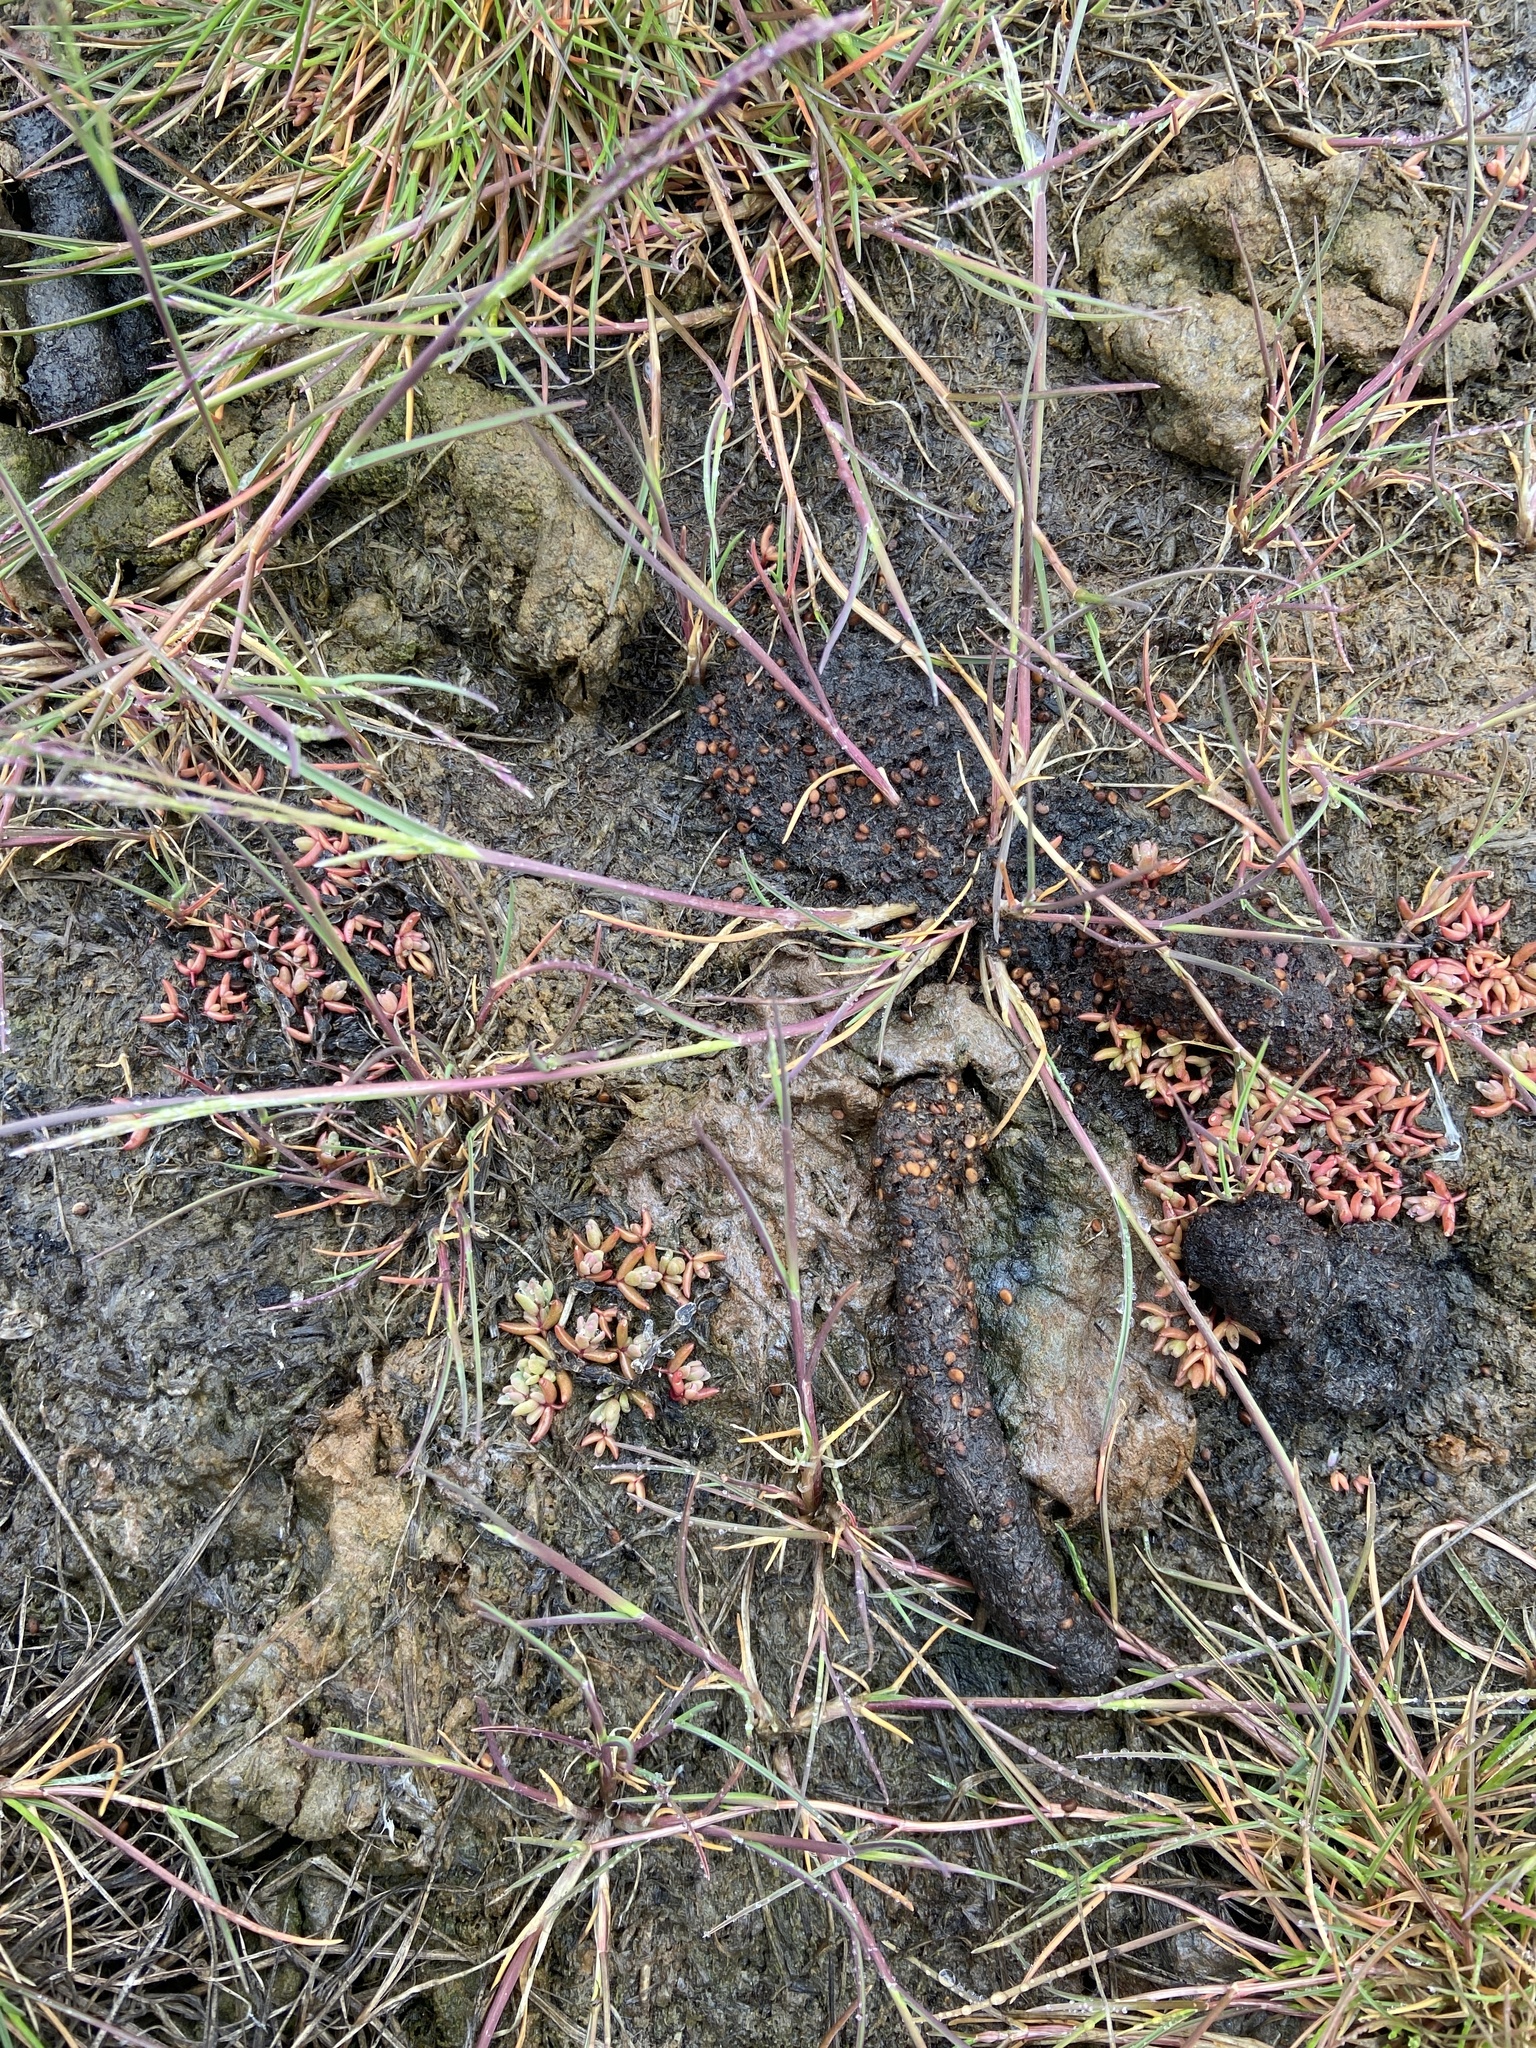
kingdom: Plantae
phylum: Tracheophyta
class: Magnoliopsida
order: Caryophyllales
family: Amaranthaceae
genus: Suaeda
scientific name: Suaeda arctica
